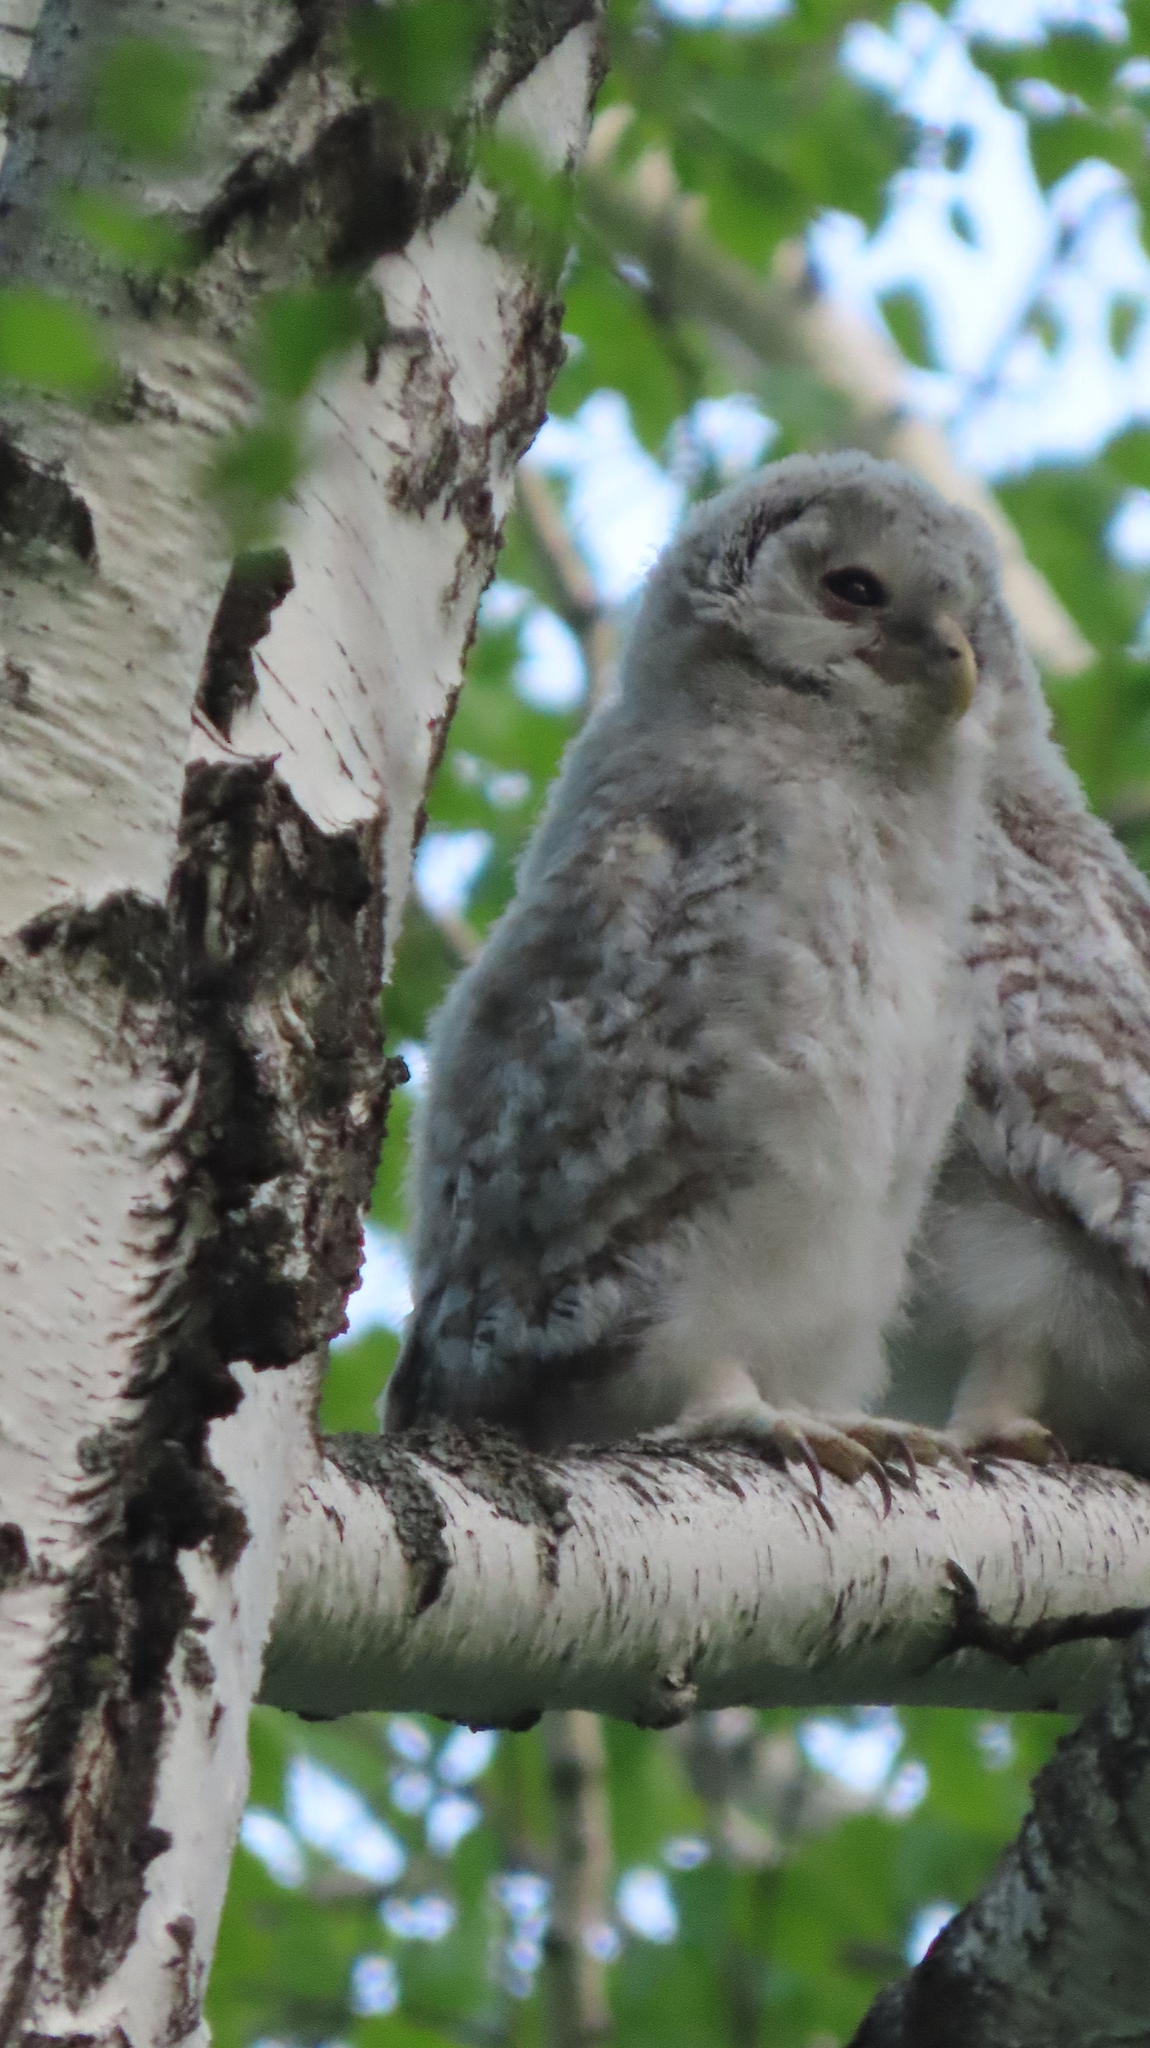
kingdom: Animalia
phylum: Chordata
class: Aves
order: Strigiformes
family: Strigidae
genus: Strix
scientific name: Strix uralensis
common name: Ural owl
